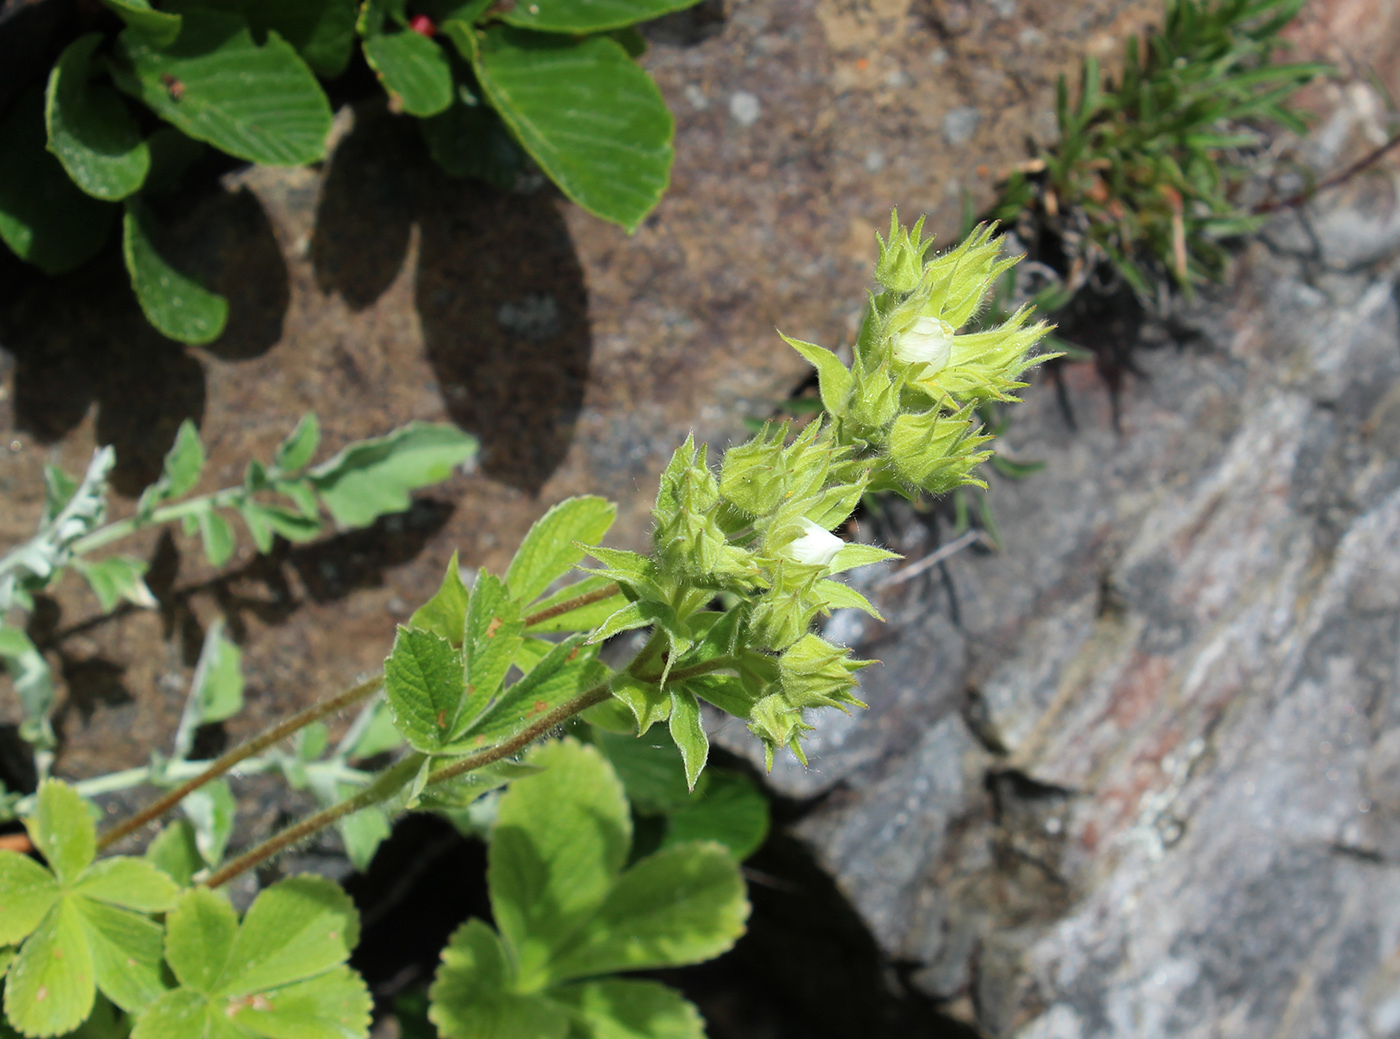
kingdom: Plantae
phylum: Tracheophyta
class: Magnoliopsida
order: Rosales
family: Rosaceae
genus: Potentilla
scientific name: Potentilla brachypetala
